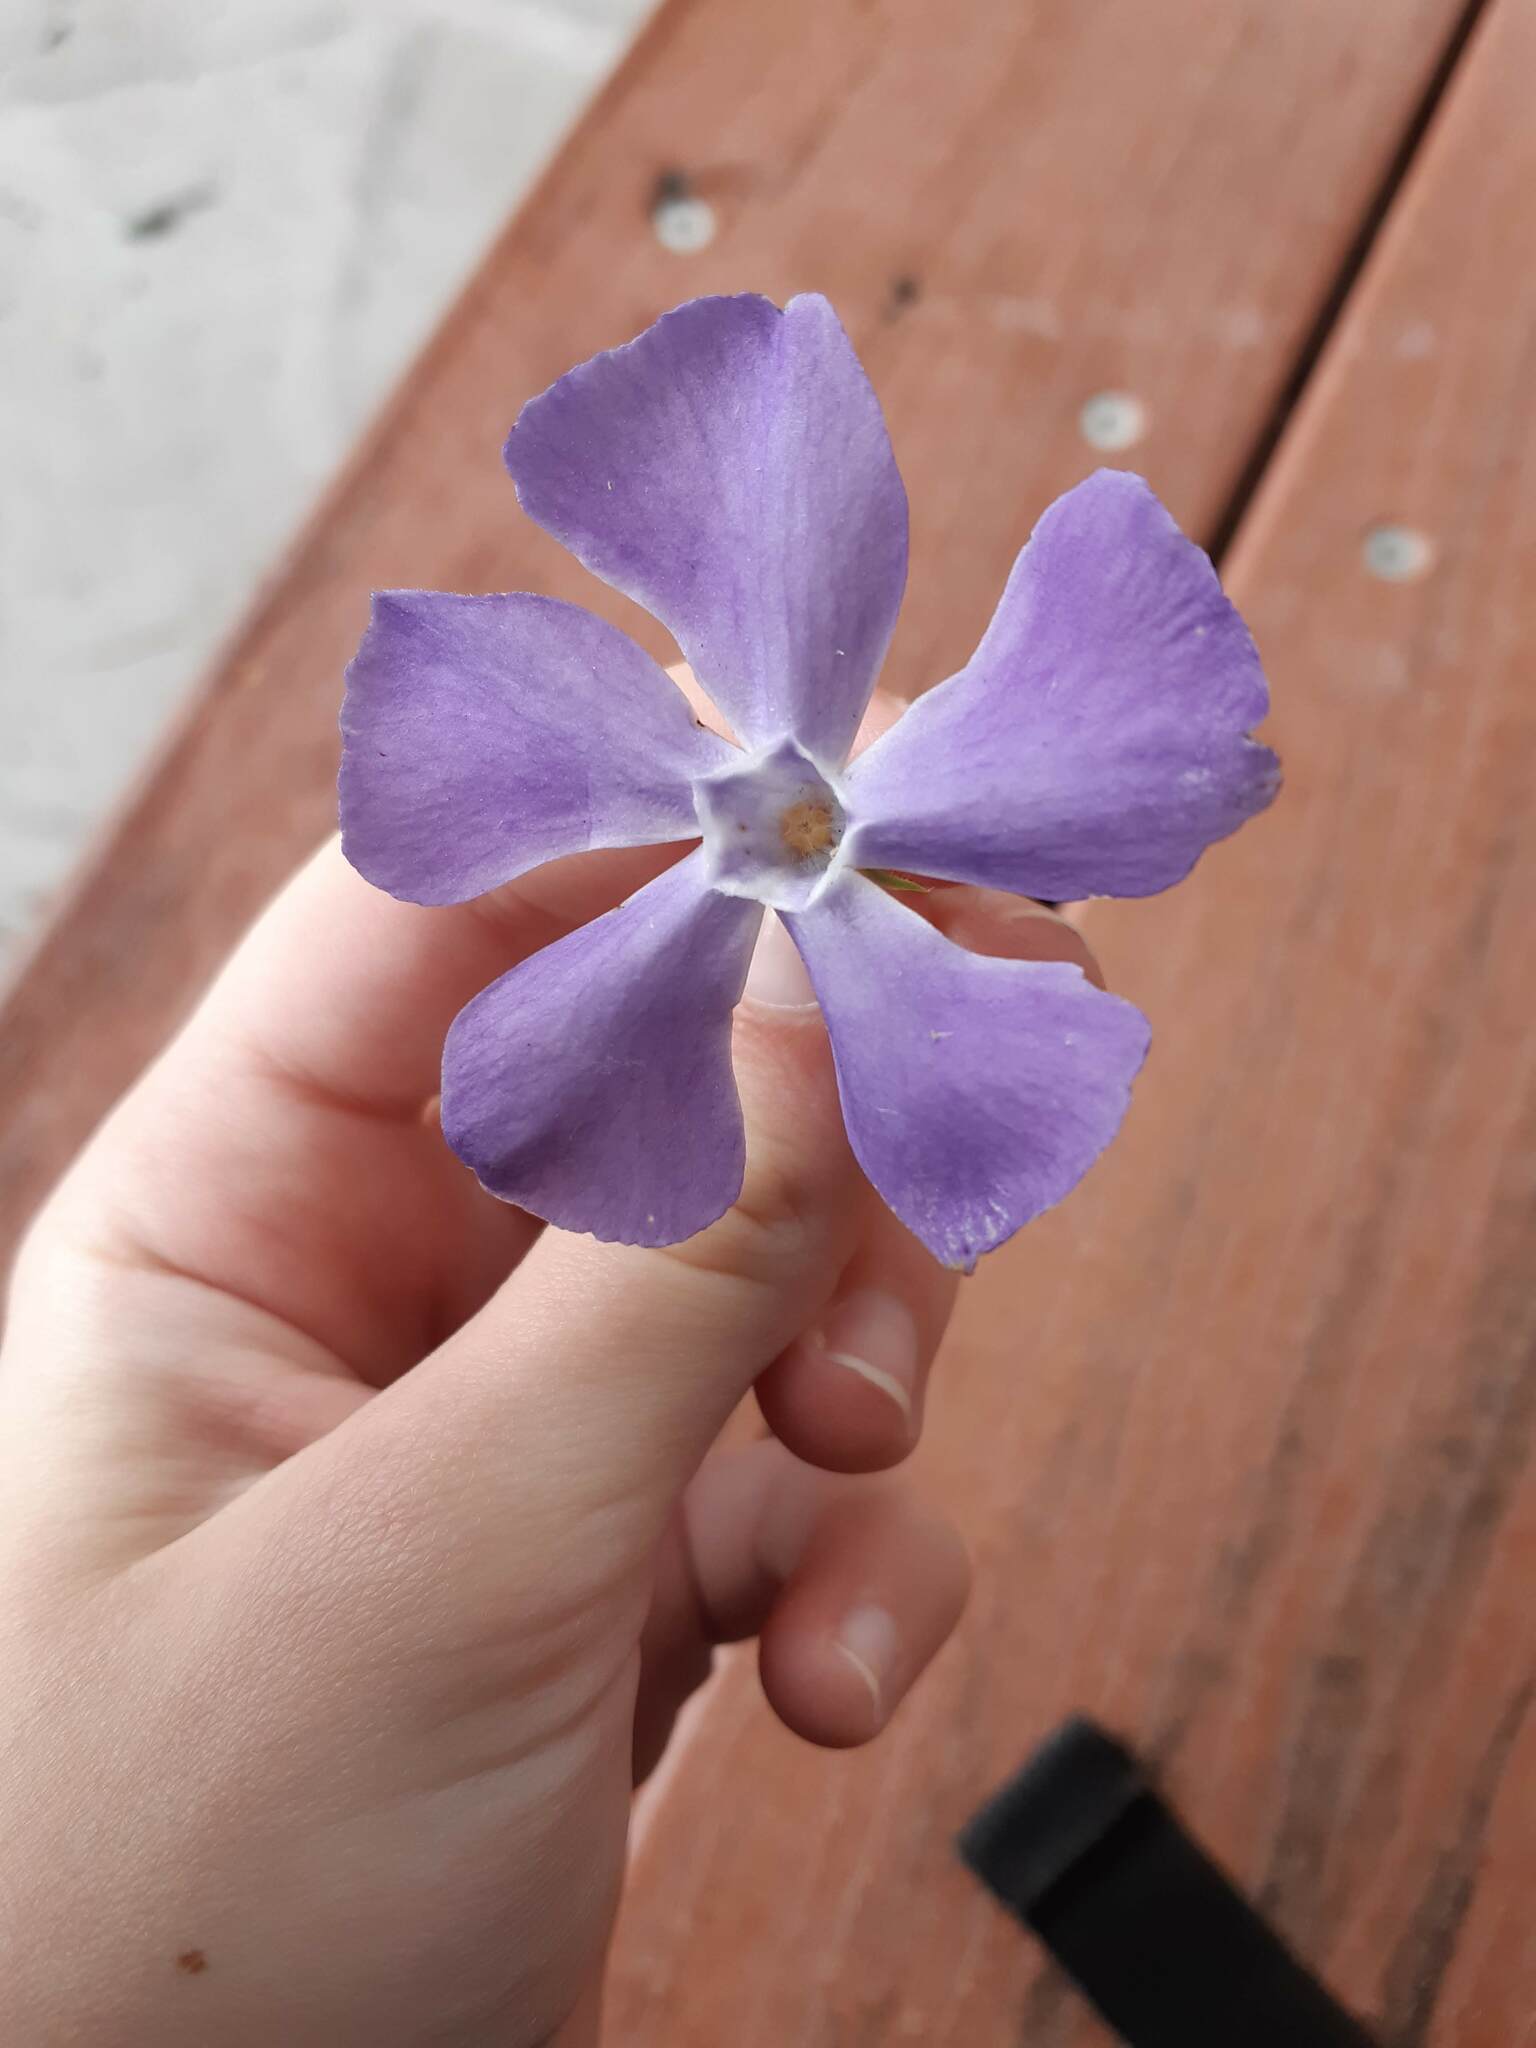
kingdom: Plantae
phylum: Tracheophyta
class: Magnoliopsida
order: Gentianales
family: Apocynaceae
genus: Vinca
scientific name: Vinca major
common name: Greater periwinkle
